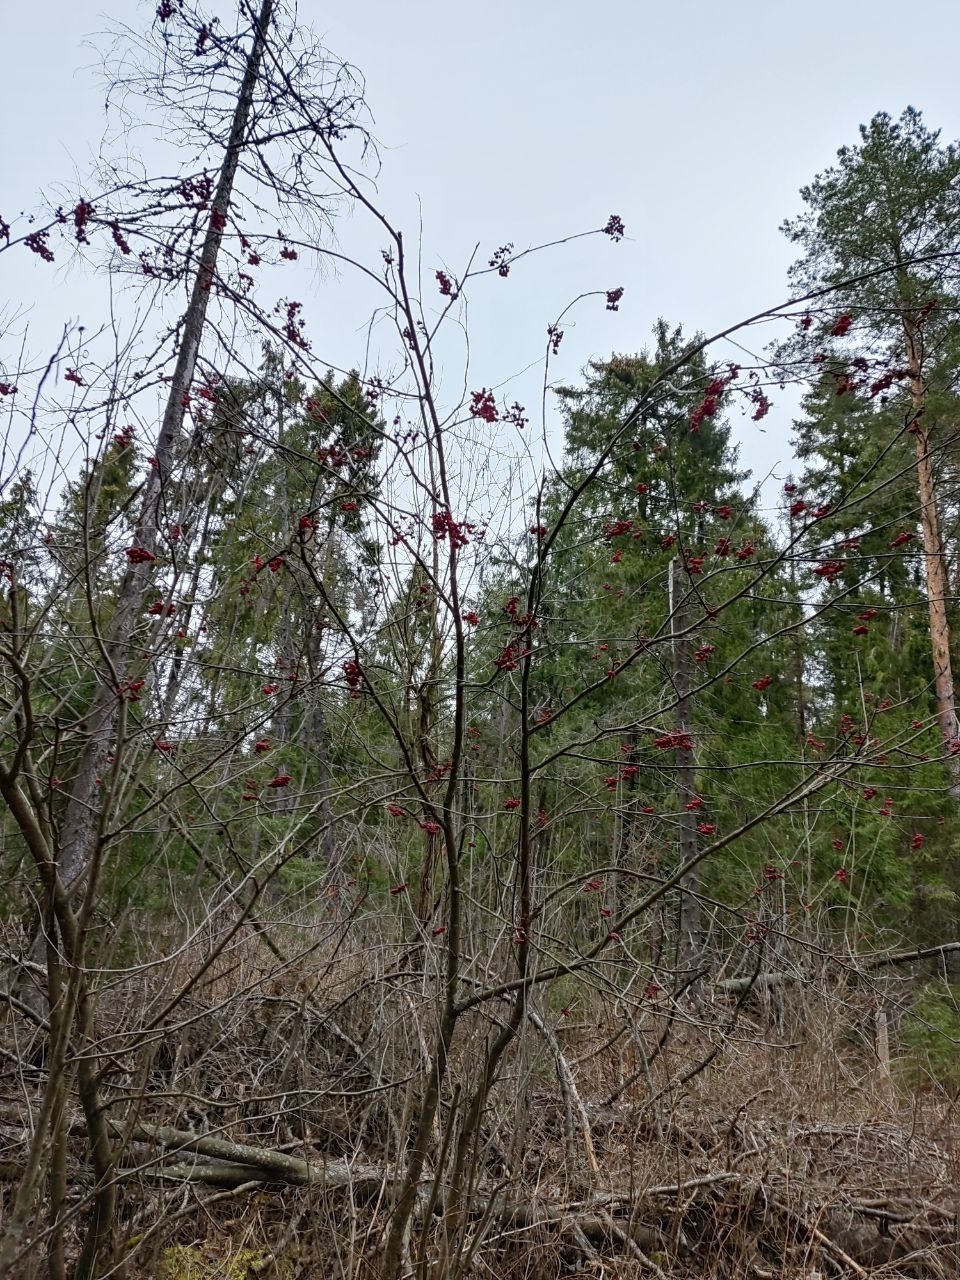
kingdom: Plantae
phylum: Tracheophyta
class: Magnoliopsida
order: Rosales
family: Rosaceae
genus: Sorbus
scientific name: Sorbus aucuparia
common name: Rowan
